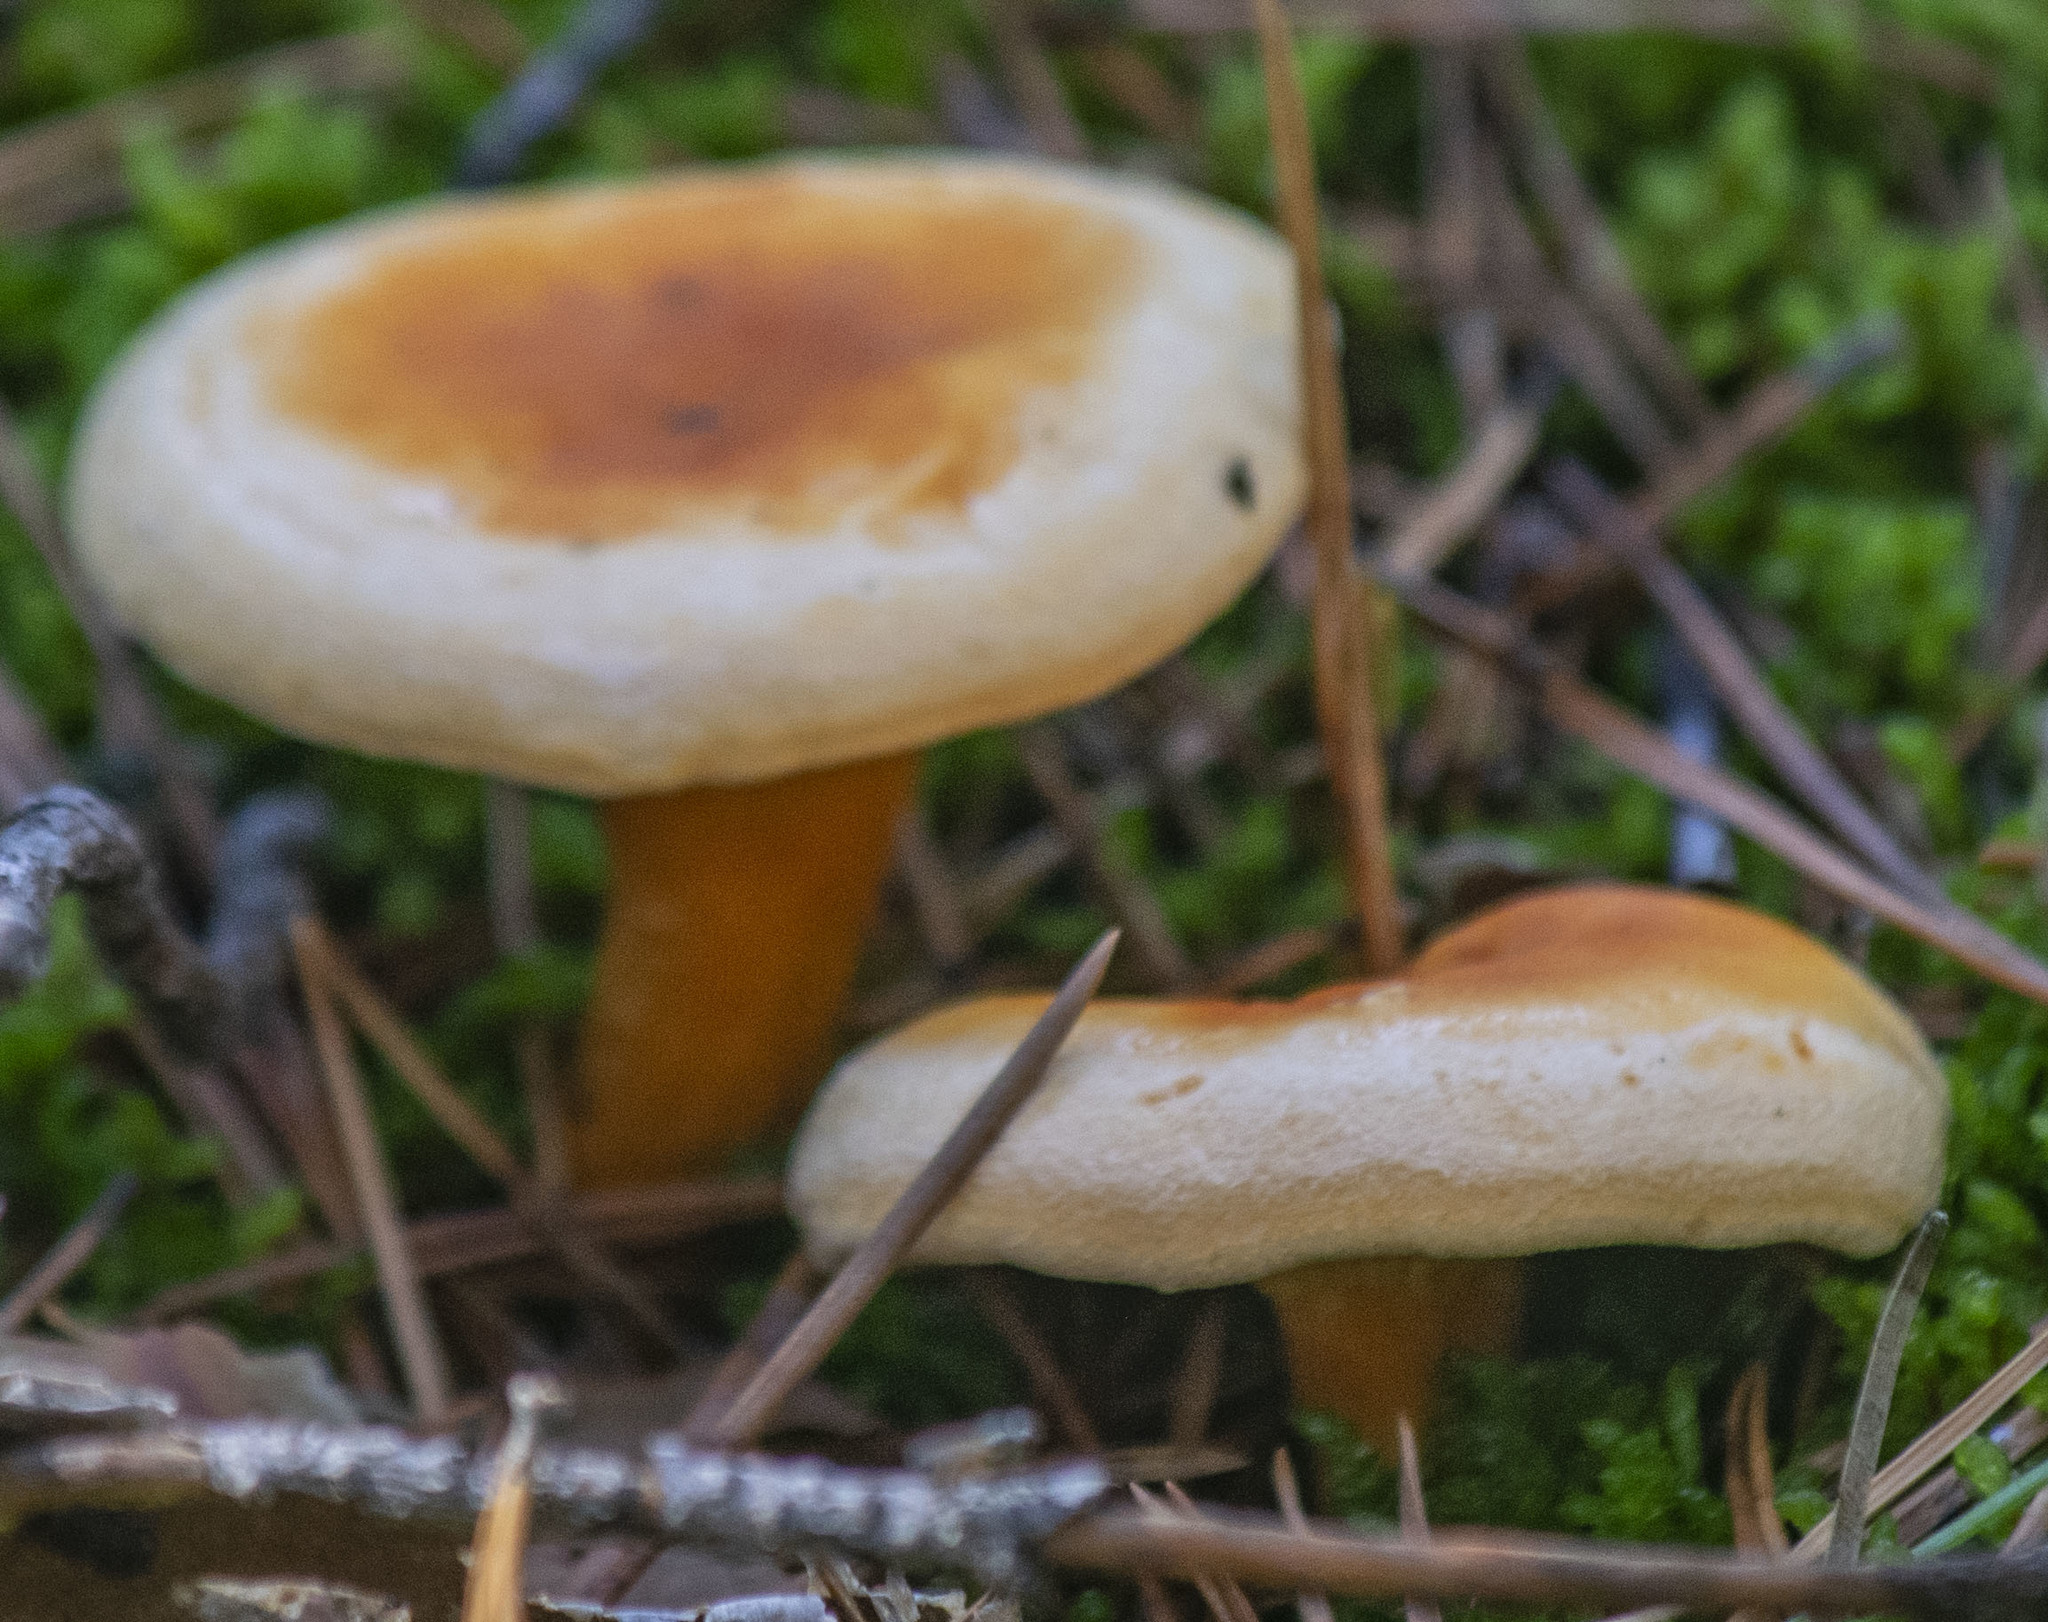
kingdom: Fungi
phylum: Basidiomycota
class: Agaricomycetes
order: Boletales
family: Hygrophoropsidaceae
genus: Hygrophoropsis
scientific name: Hygrophoropsis aurantiaca
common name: False chanterelle
